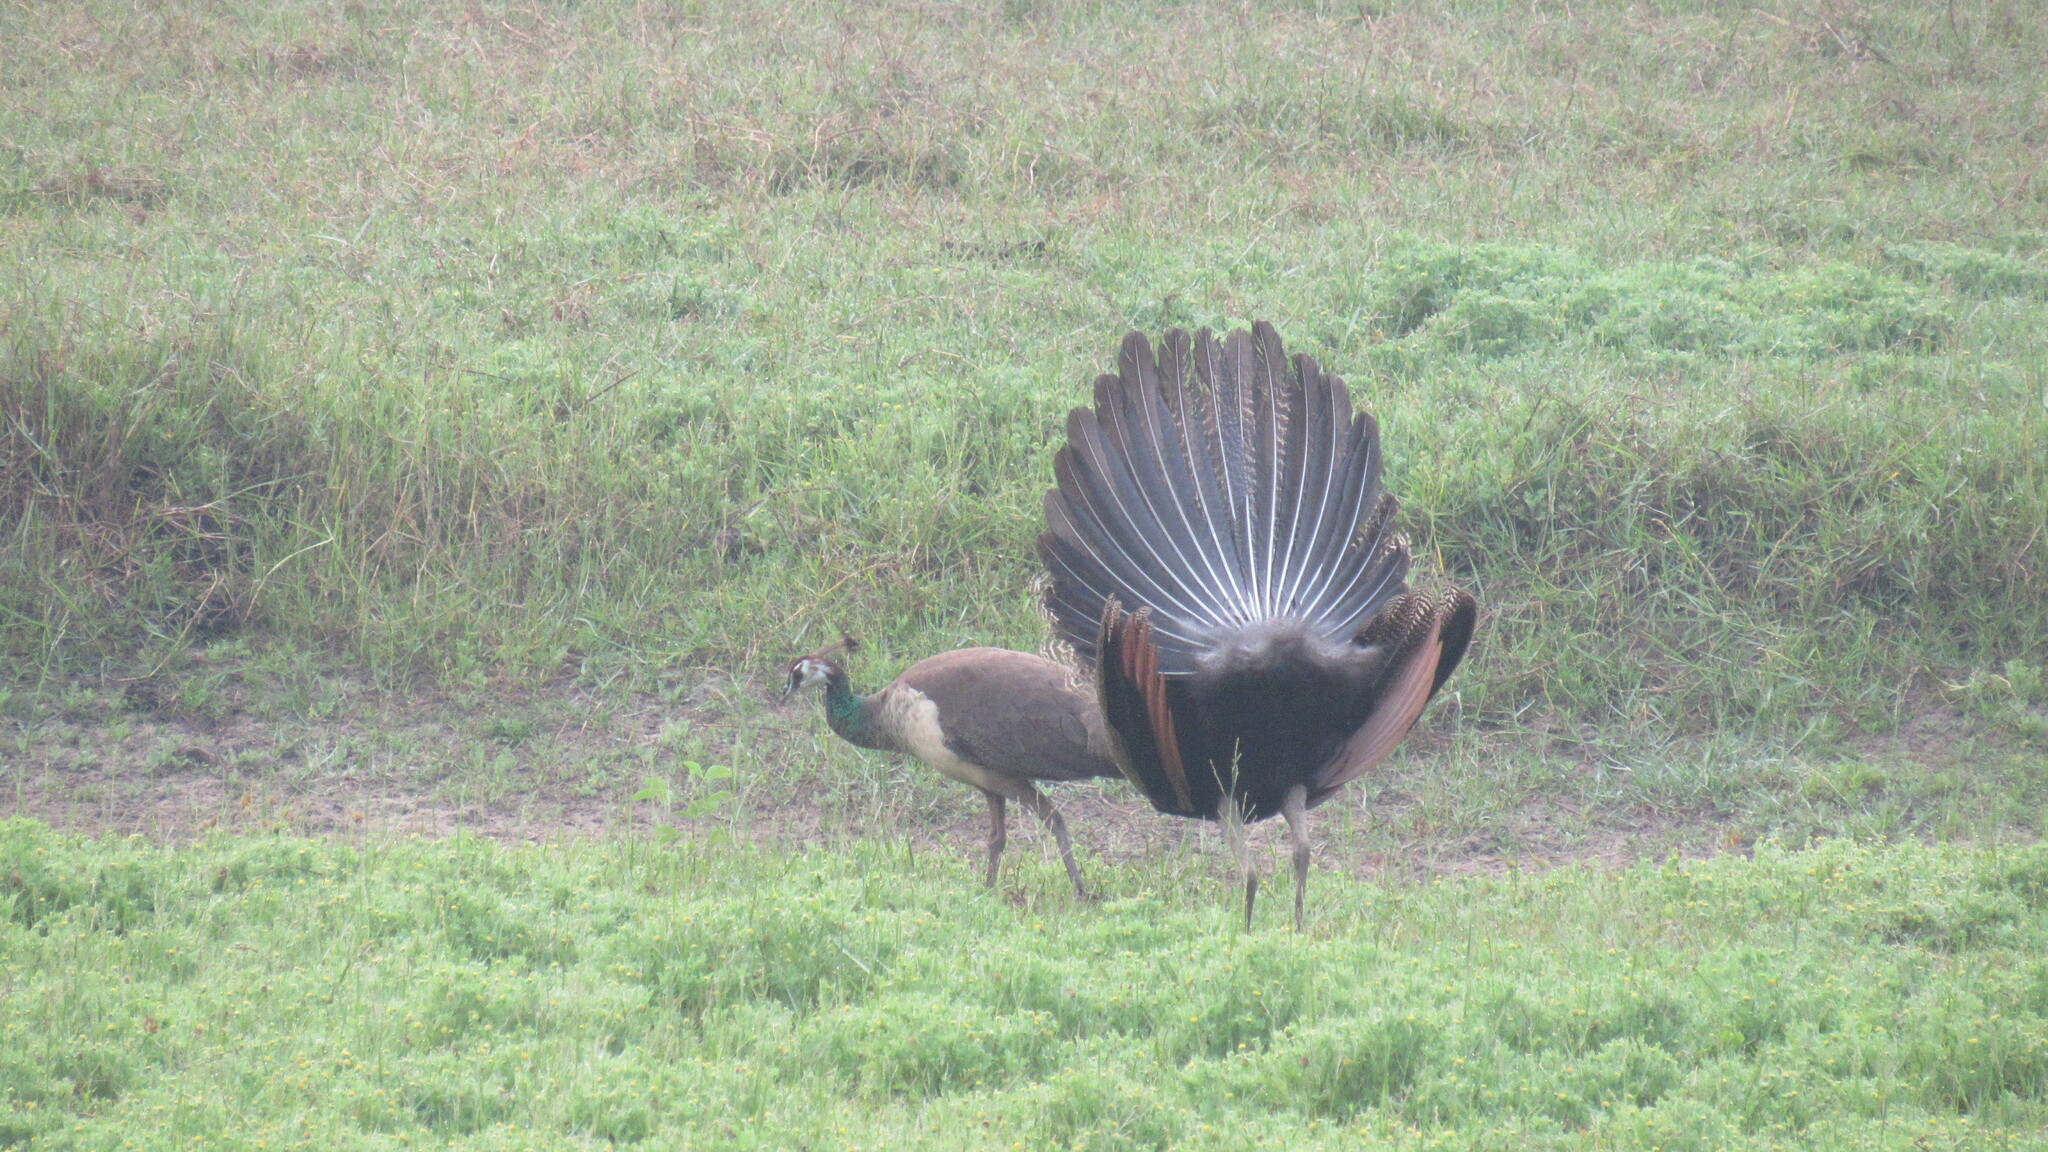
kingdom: Animalia
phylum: Chordata
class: Aves
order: Galliformes
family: Phasianidae
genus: Pavo
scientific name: Pavo cristatus
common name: Indian peafowl
